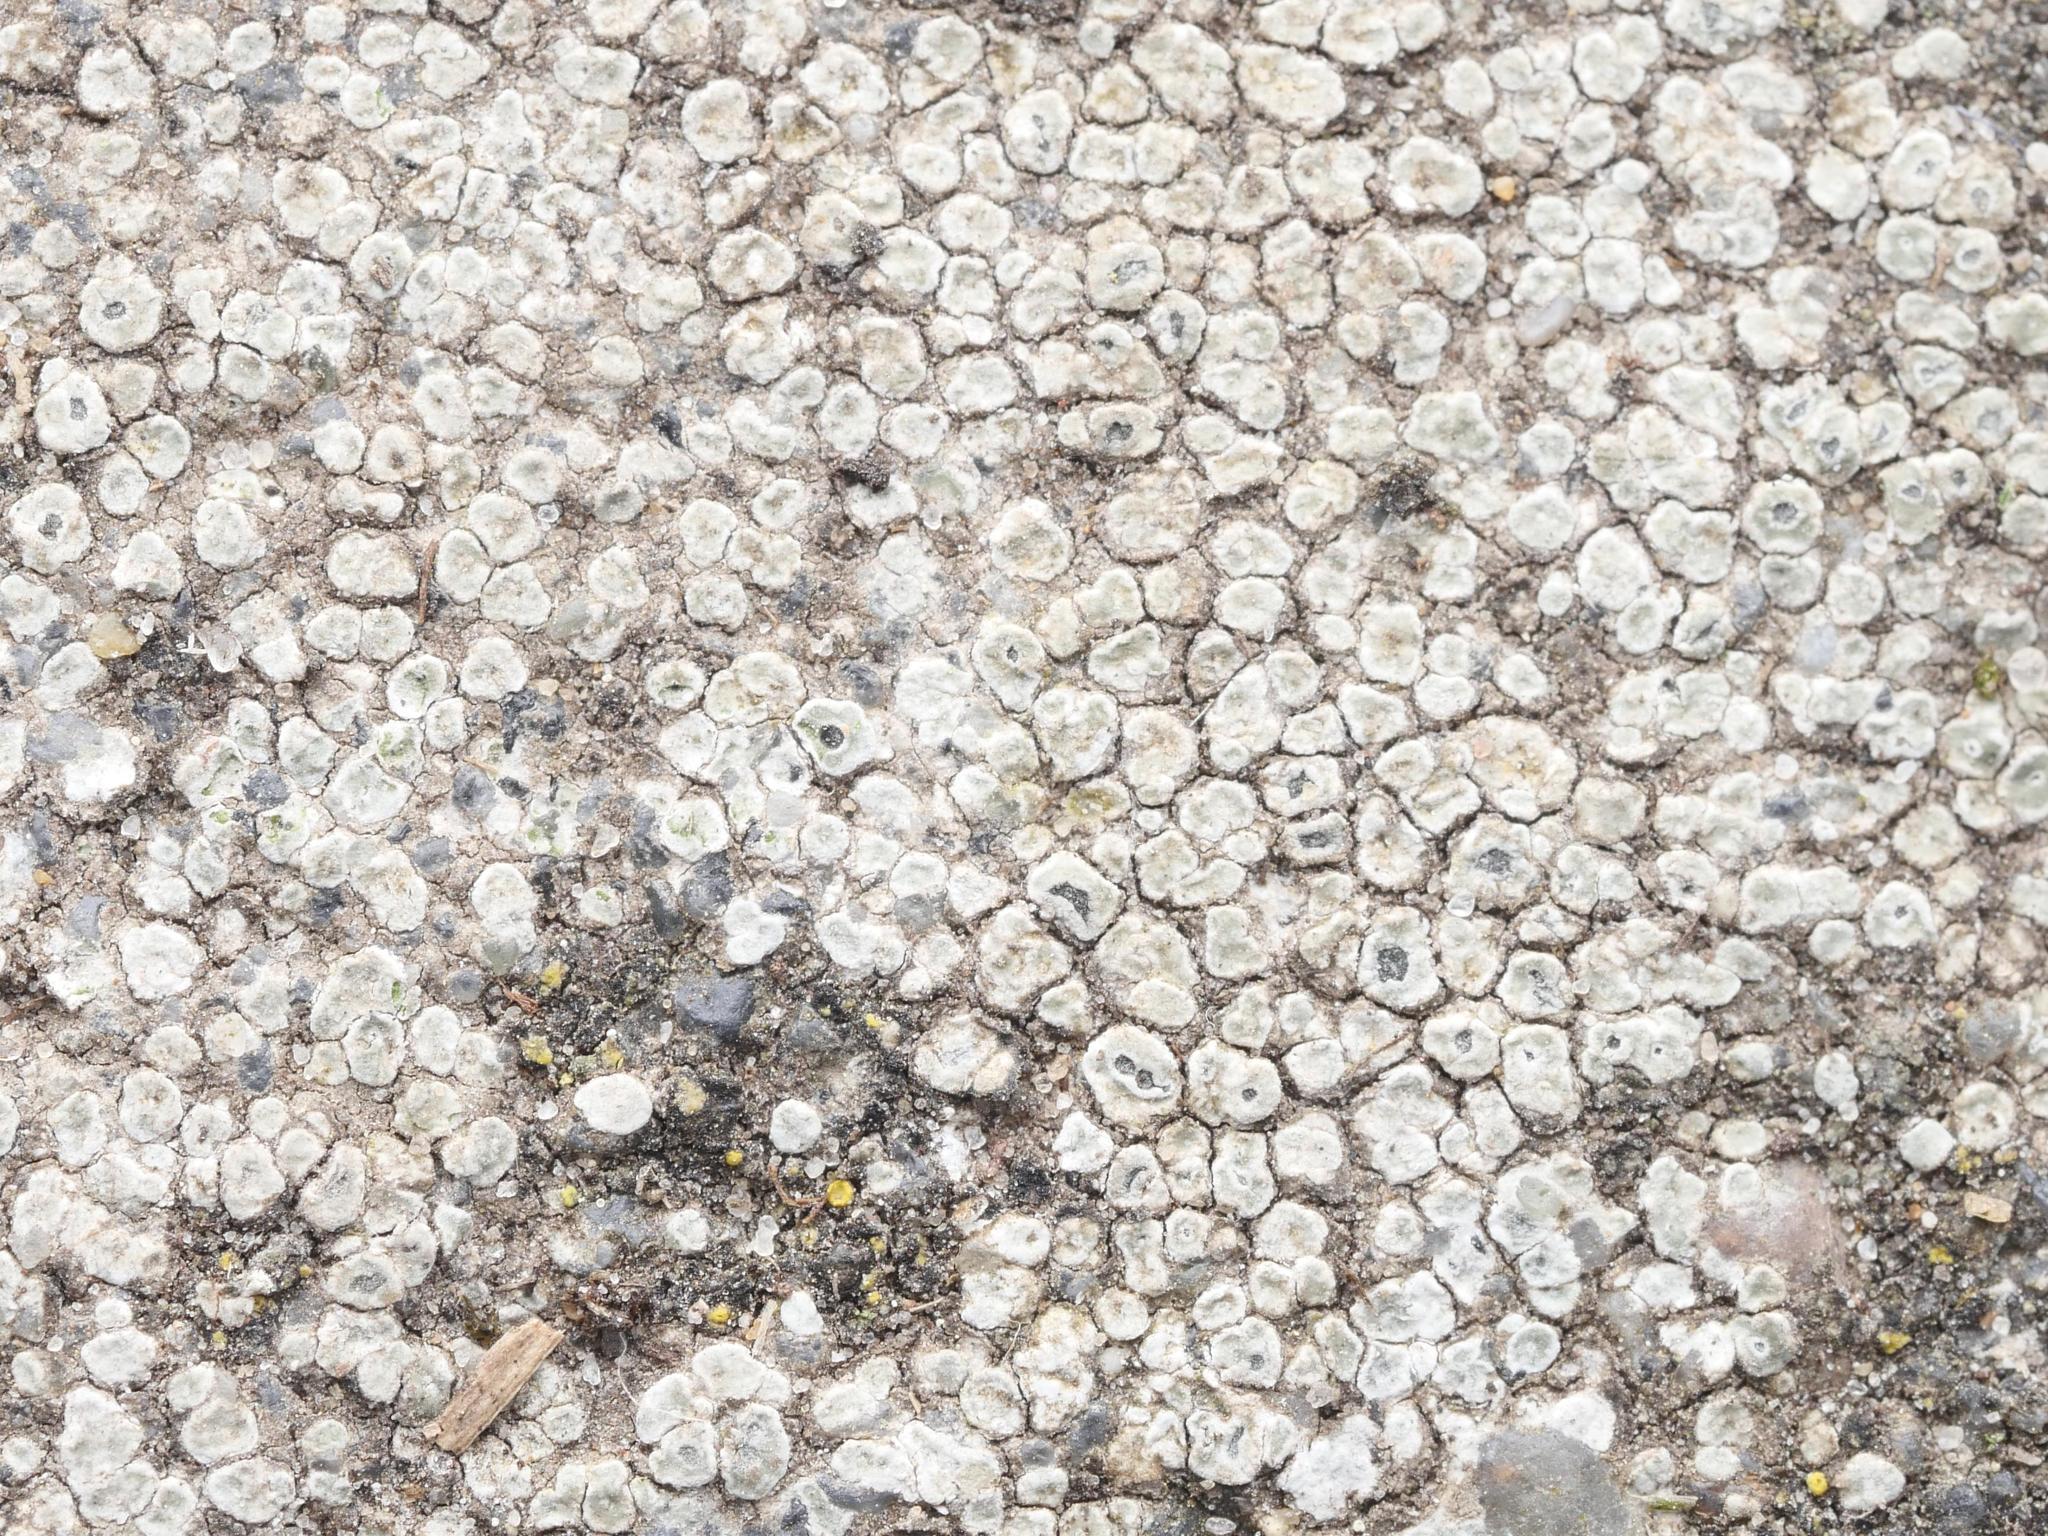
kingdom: Fungi
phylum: Ascomycota
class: Lecanoromycetes
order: Pertusariales
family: Megasporaceae
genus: Circinaria
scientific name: Circinaria contorta
